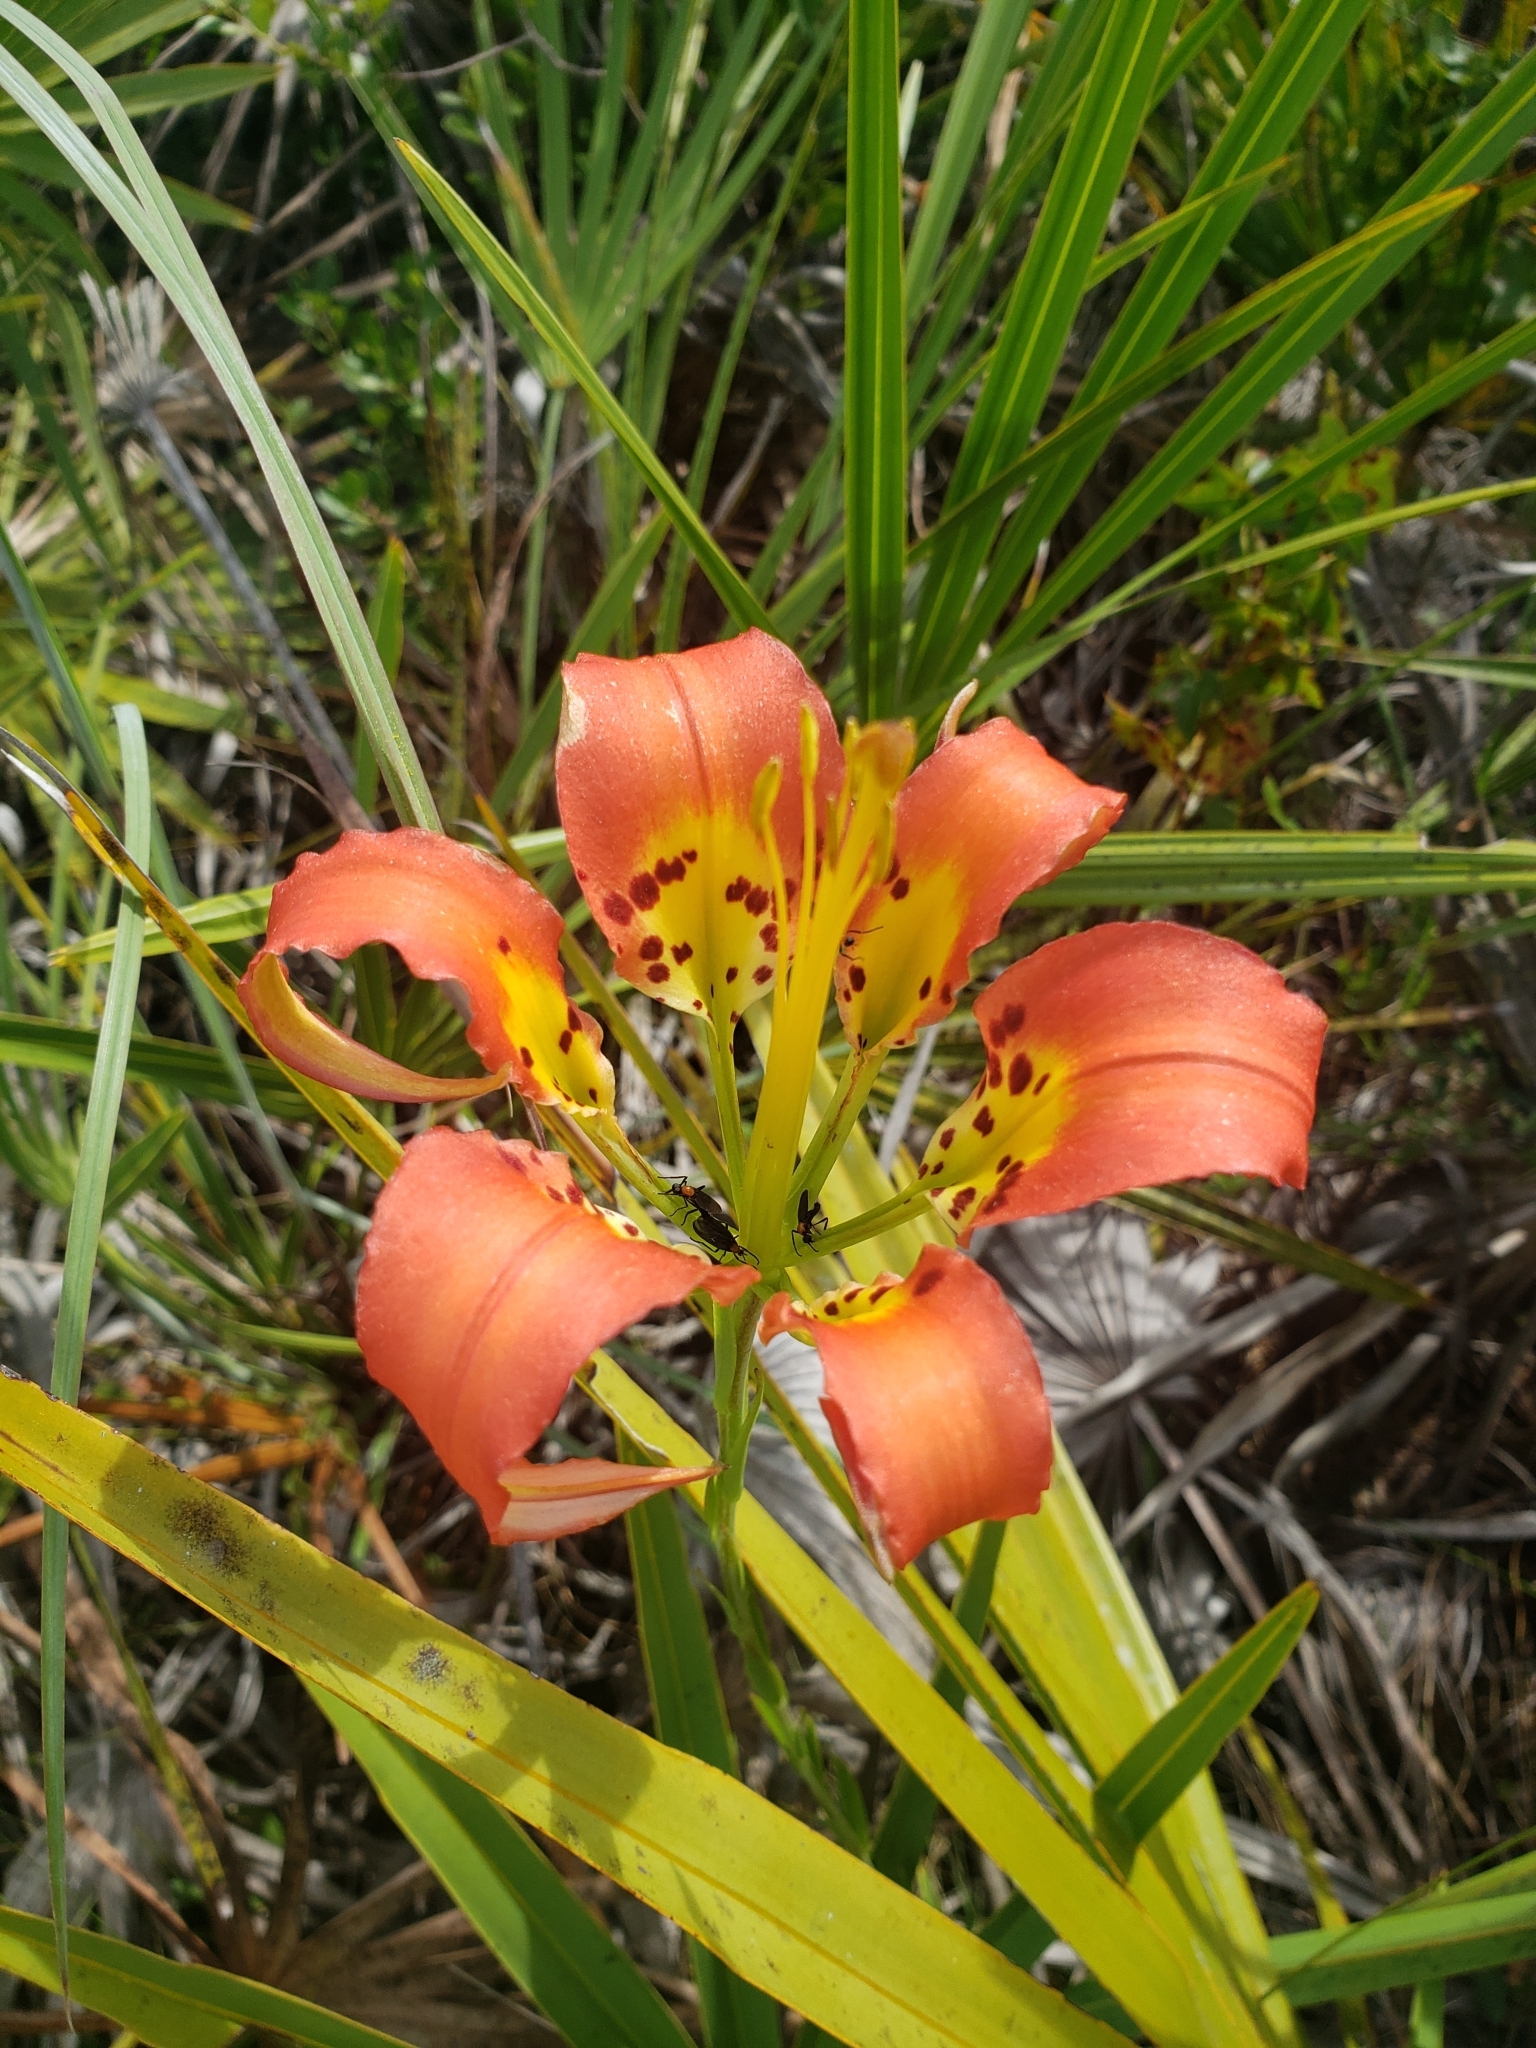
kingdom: Plantae
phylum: Tracheophyta
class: Liliopsida
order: Liliales
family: Liliaceae
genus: Lilium
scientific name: Lilium catesbaei
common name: Catesby's lily
